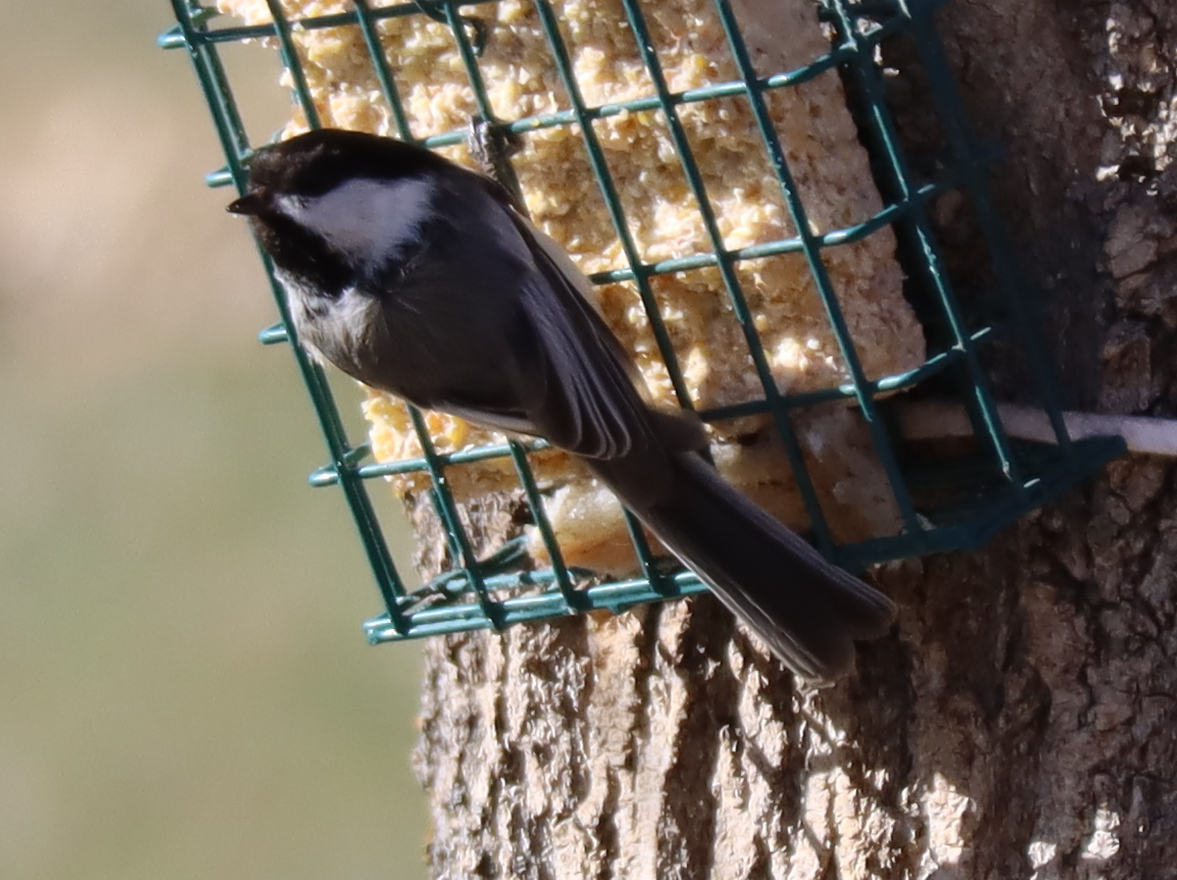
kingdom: Animalia
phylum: Chordata
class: Aves
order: Passeriformes
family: Paridae
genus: Poecile
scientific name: Poecile atricapillus
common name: Black-capped chickadee
